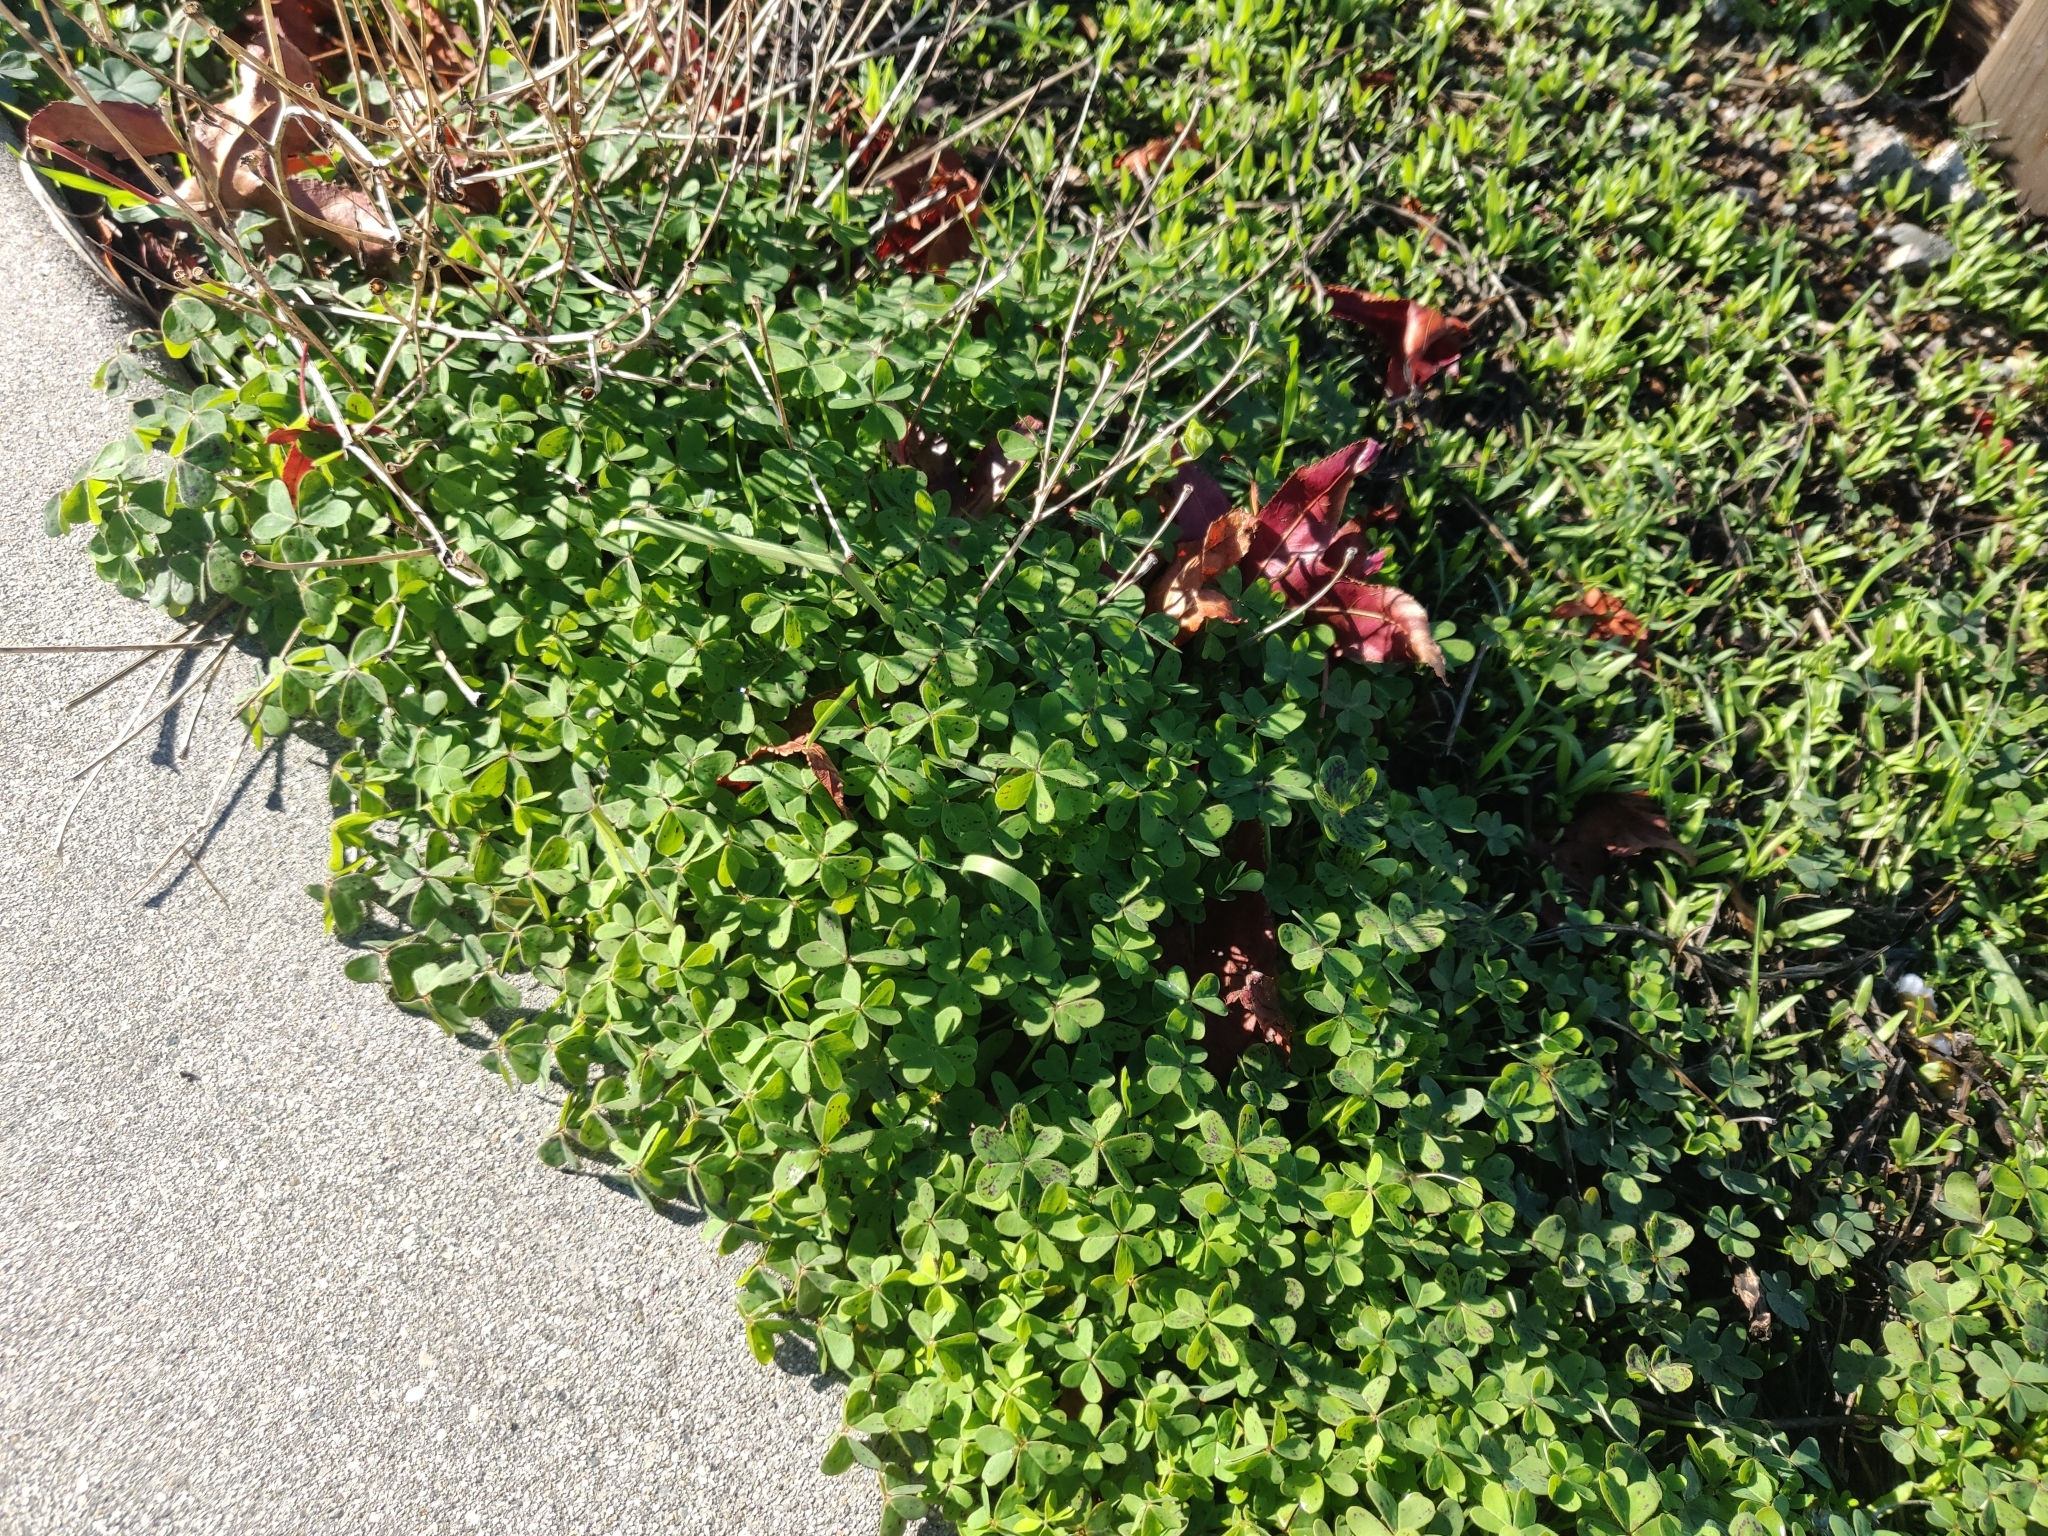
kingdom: Plantae
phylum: Tracheophyta
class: Magnoliopsida
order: Oxalidales
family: Oxalidaceae
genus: Oxalis
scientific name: Oxalis pes-caprae
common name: Bermuda-buttercup
